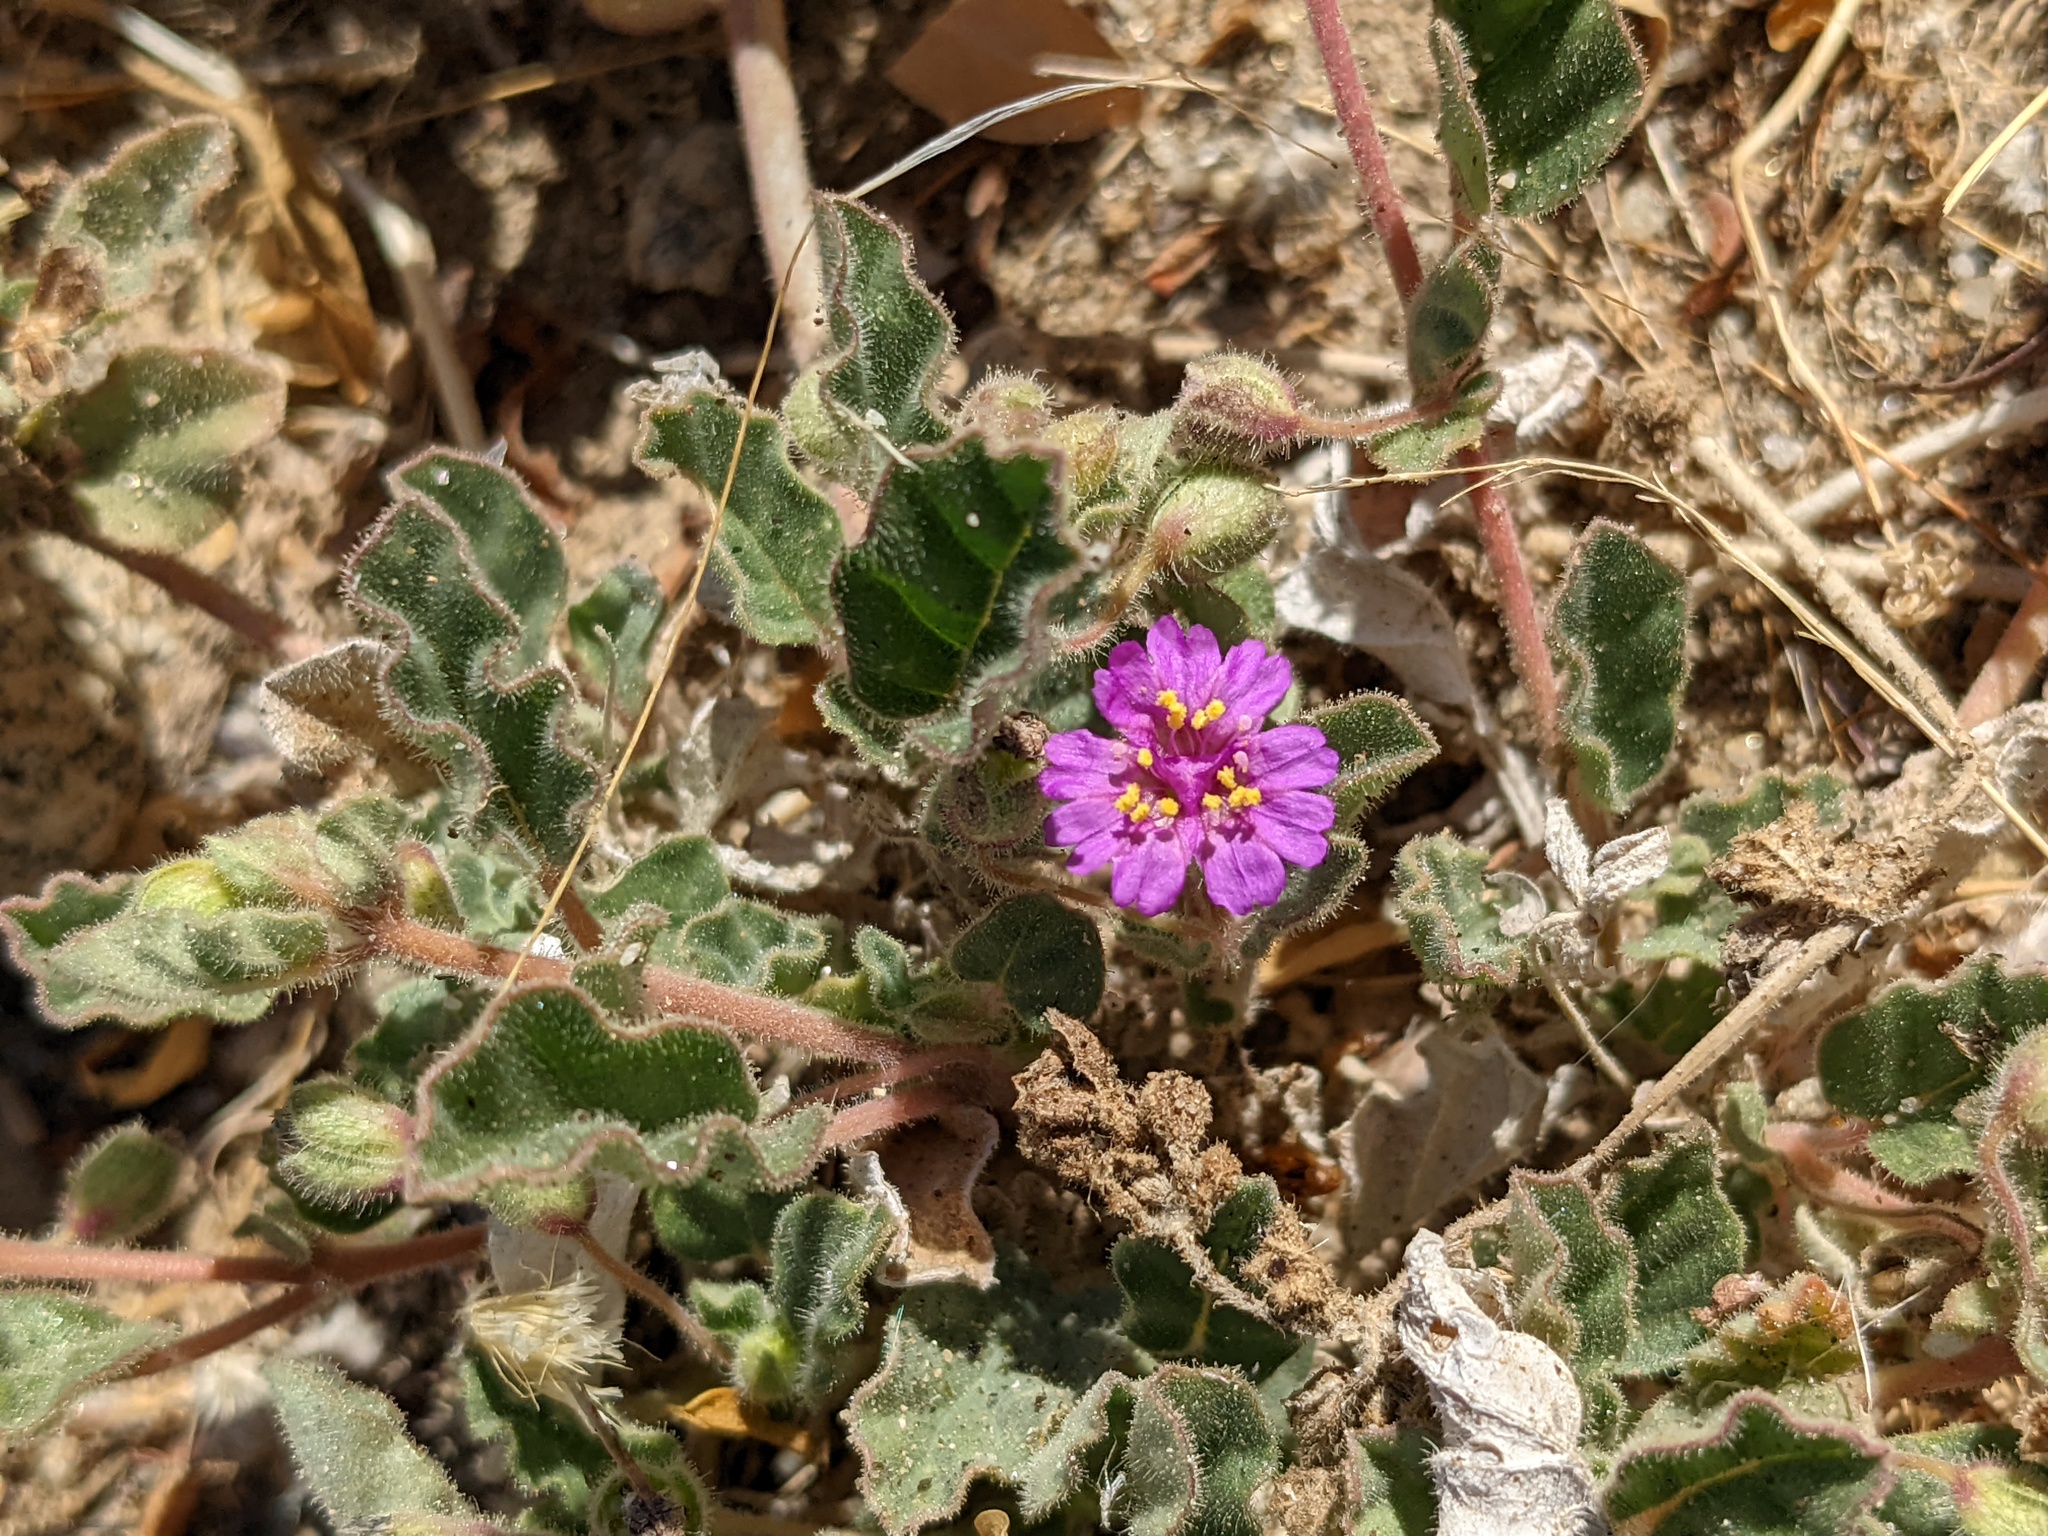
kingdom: Plantae
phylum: Tracheophyta
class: Magnoliopsida
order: Caryophyllales
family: Nyctaginaceae
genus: Allionia
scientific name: Allionia incarnata
